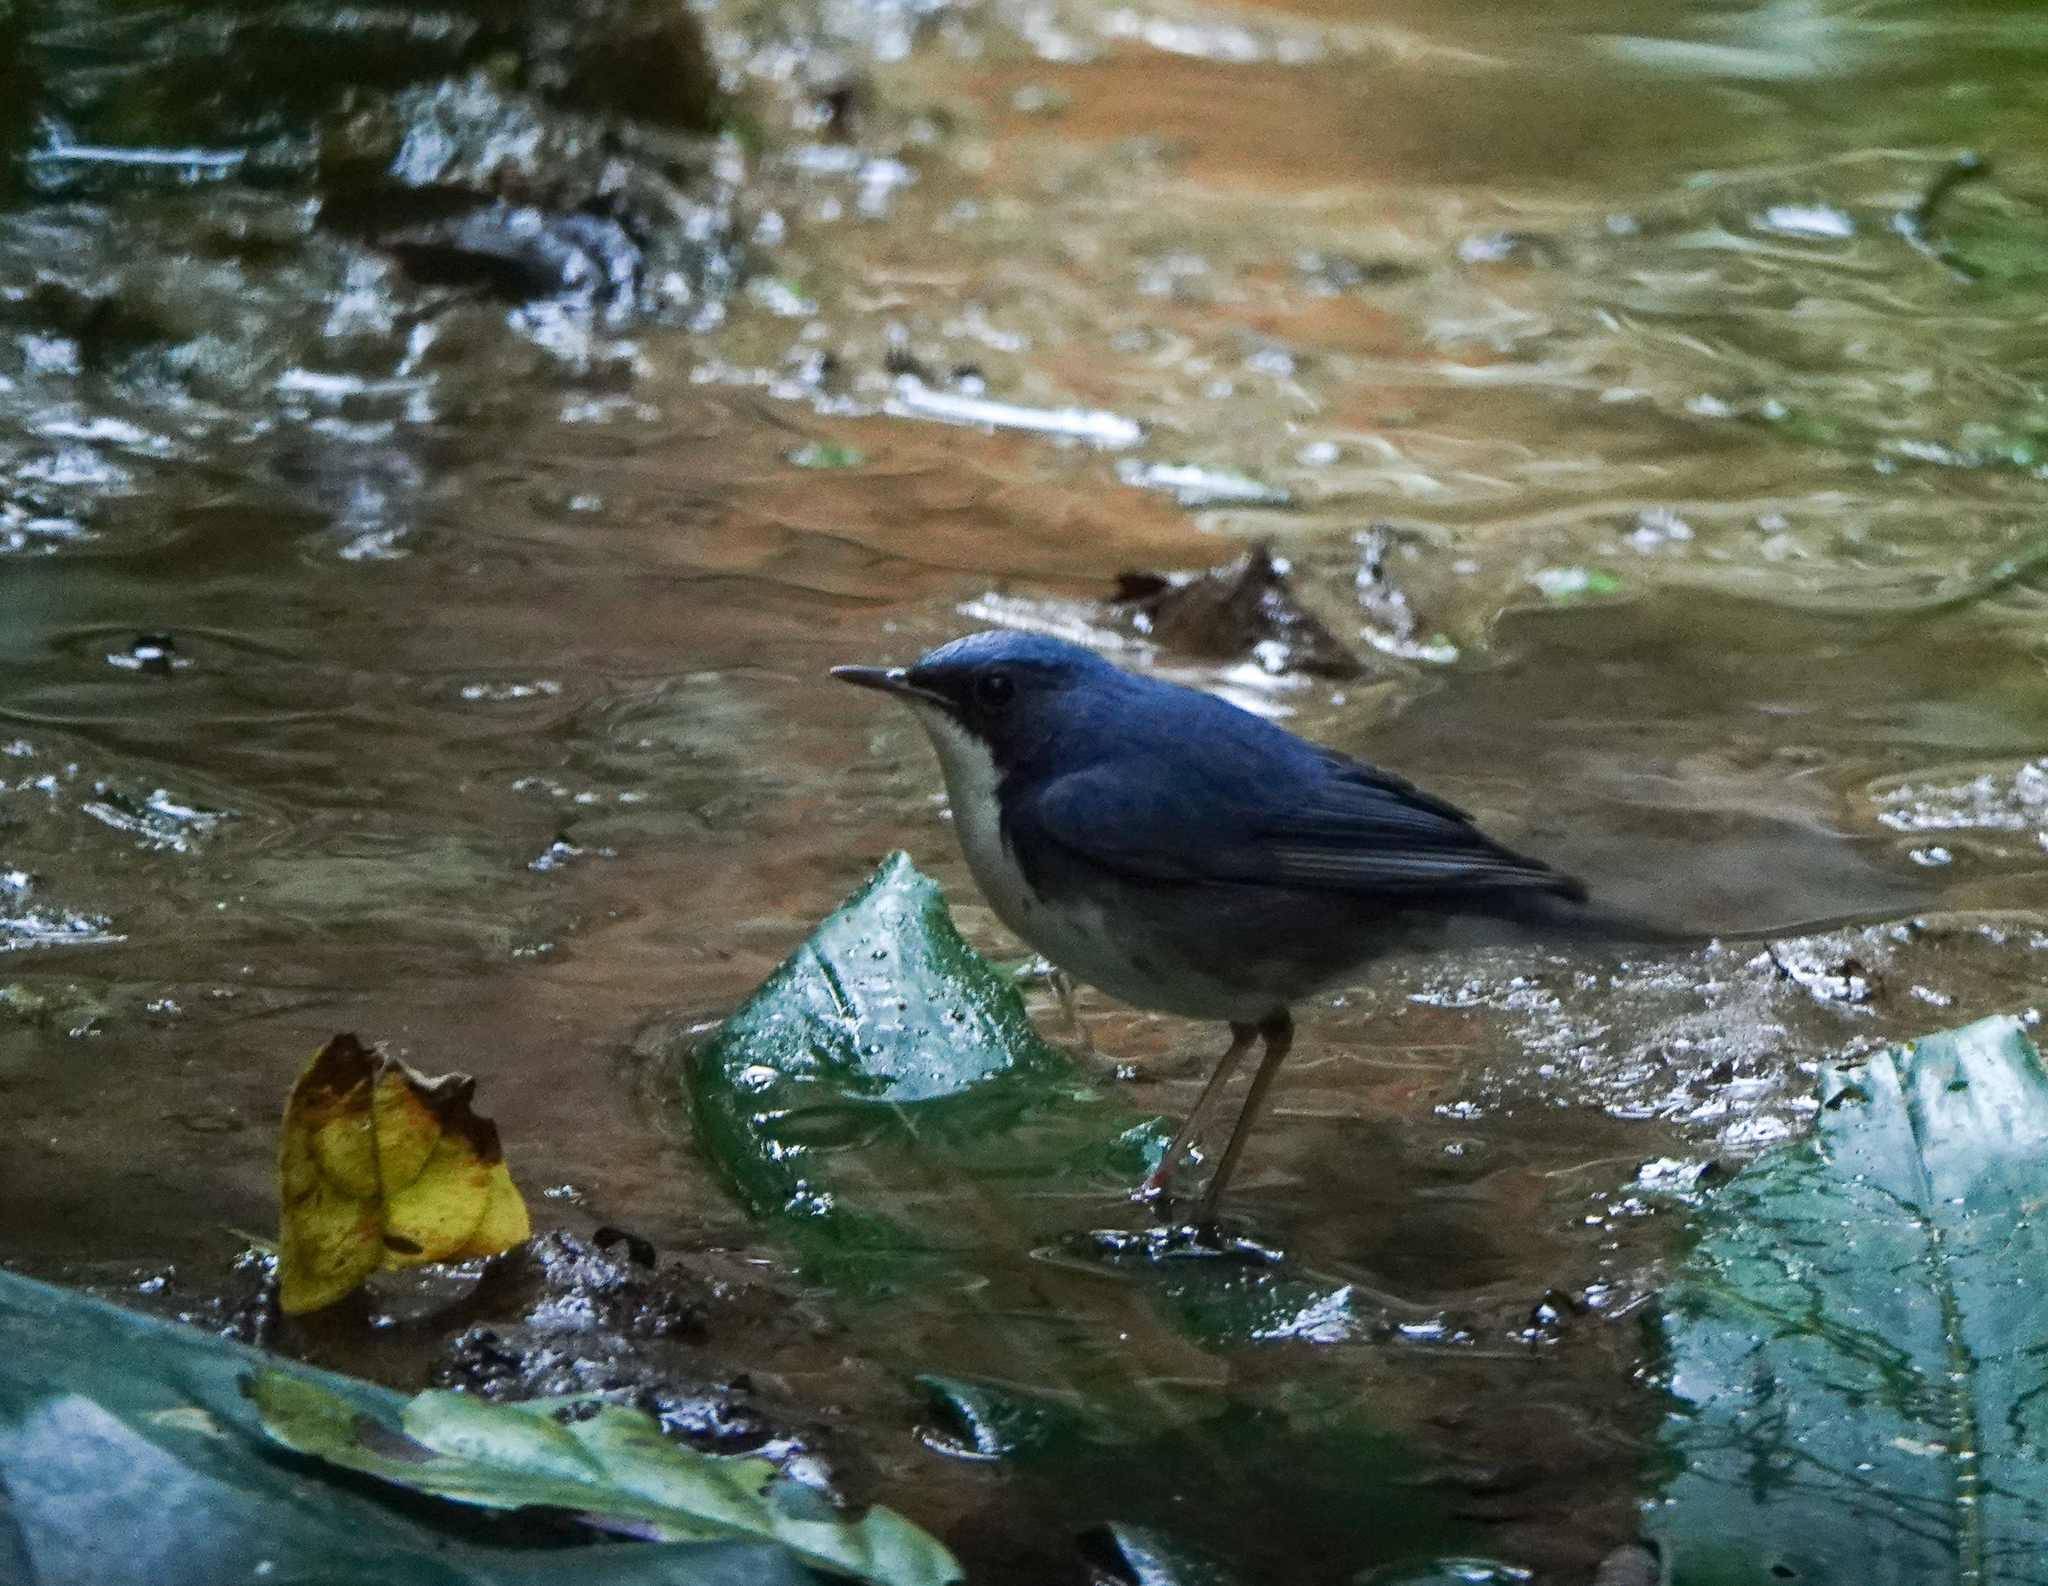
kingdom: Animalia
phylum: Chordata
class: Aves
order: Passeriformes
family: Muscicapidae
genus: Luscinia
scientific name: Luscinia cyane
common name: Siberian blue robin
